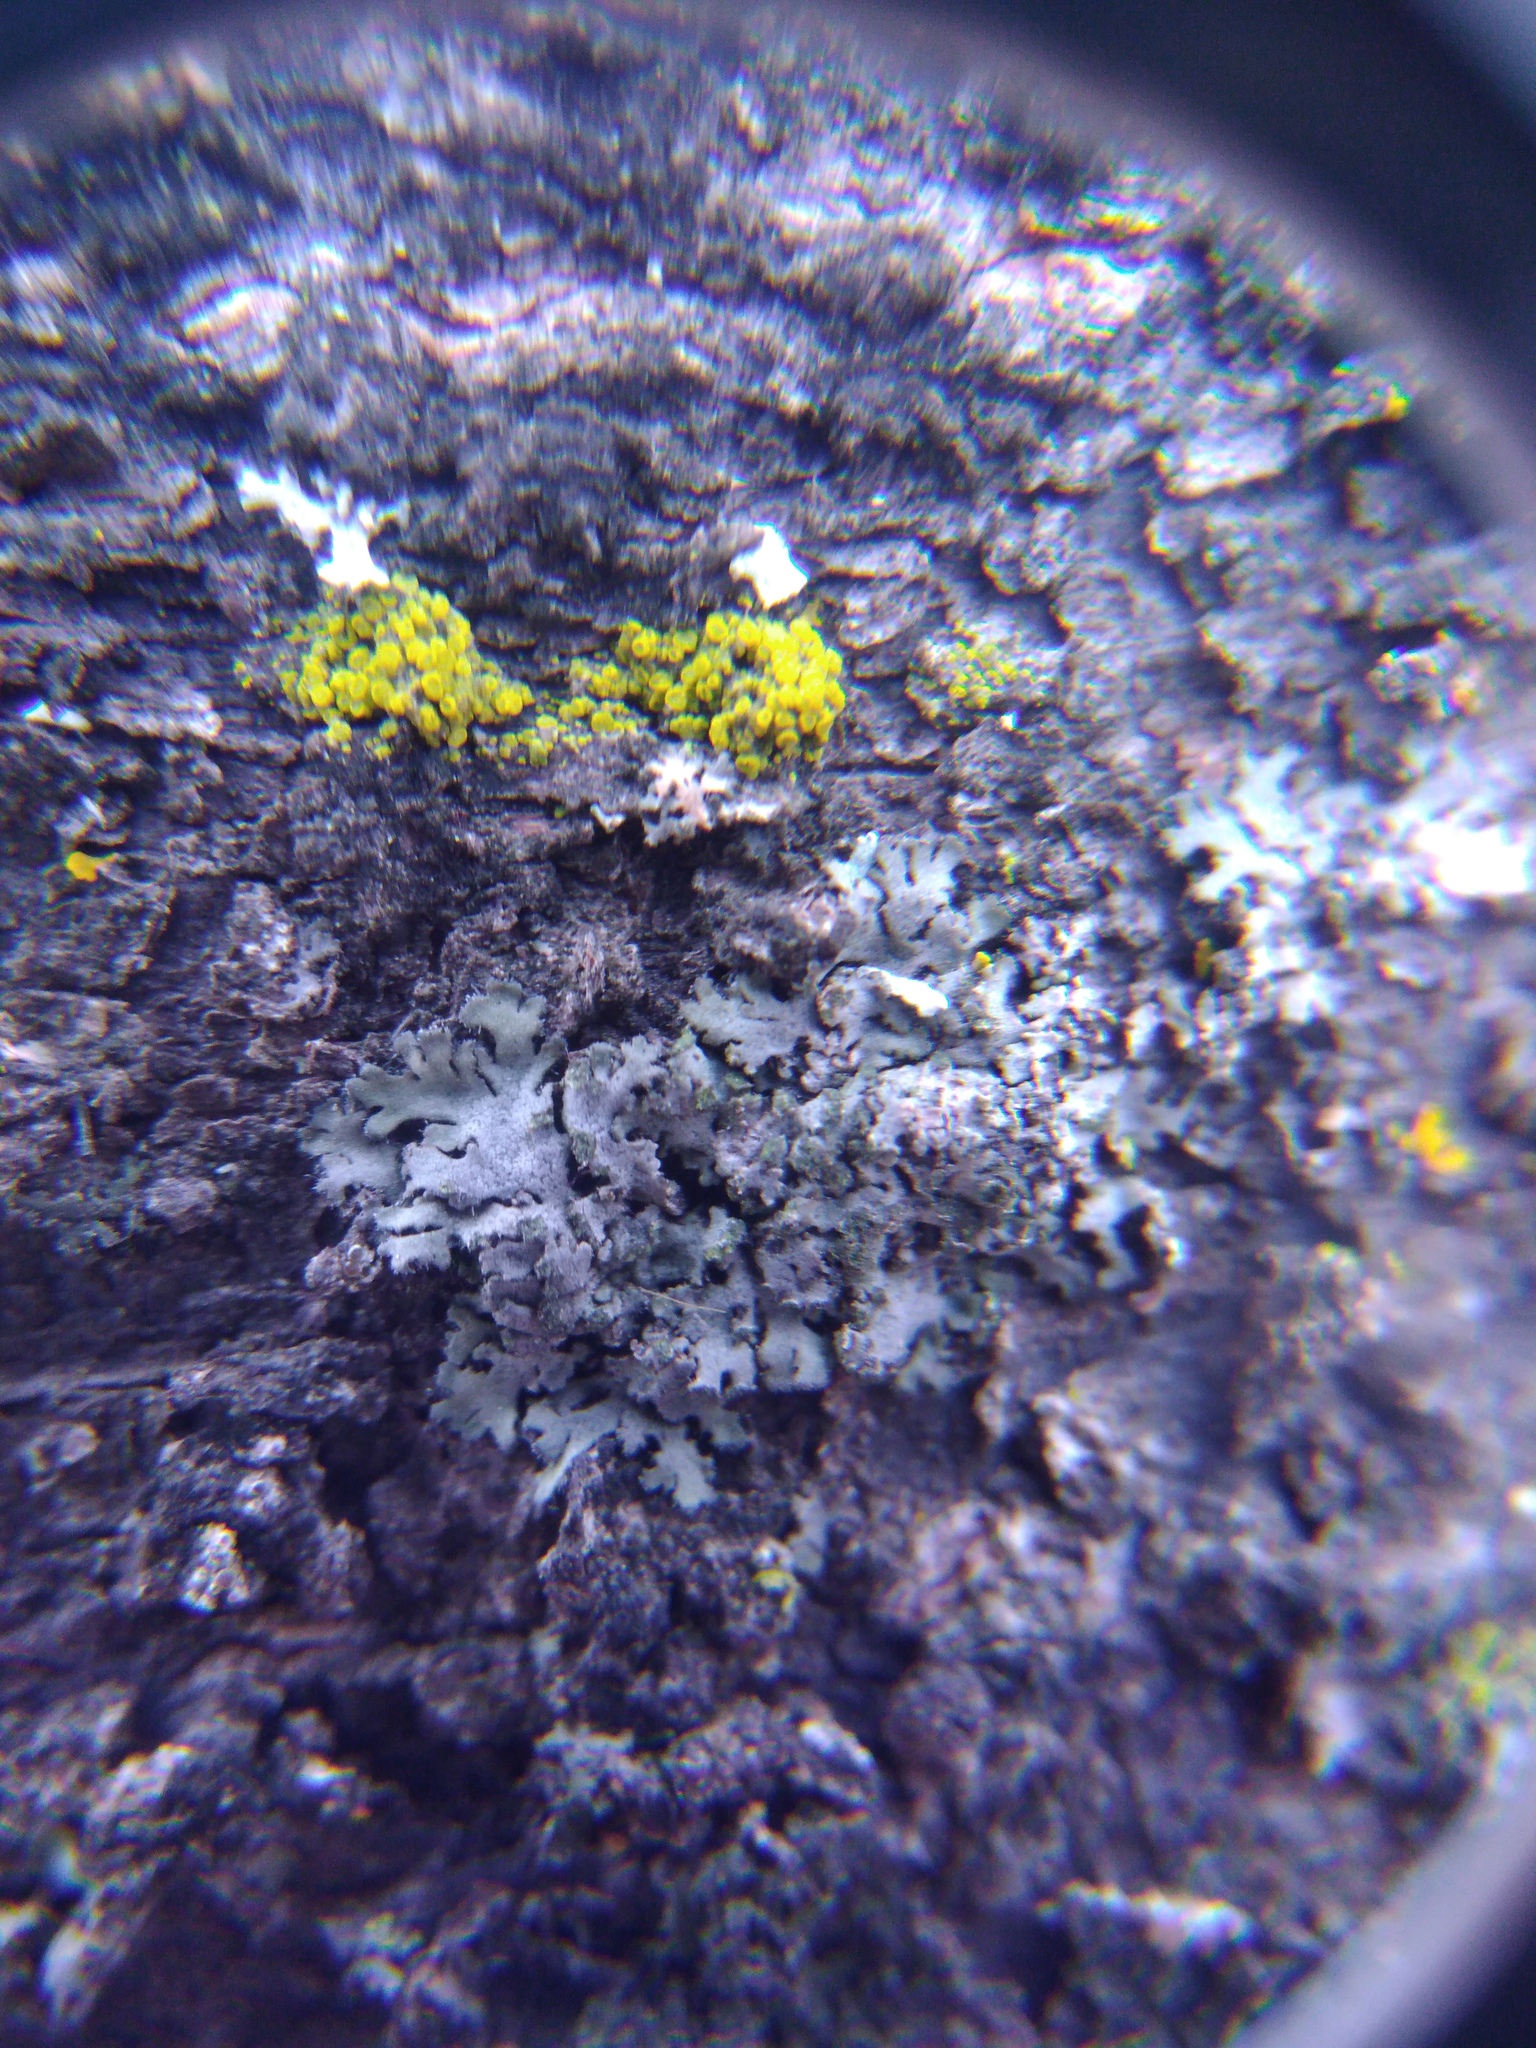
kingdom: Fungi
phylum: Ascomycota
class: Lecanoromycetes
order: Caliciales
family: Physciaceae
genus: Phaeophyscia
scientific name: Phaeophyscia orbicularis
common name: Mealy shadow lichen
